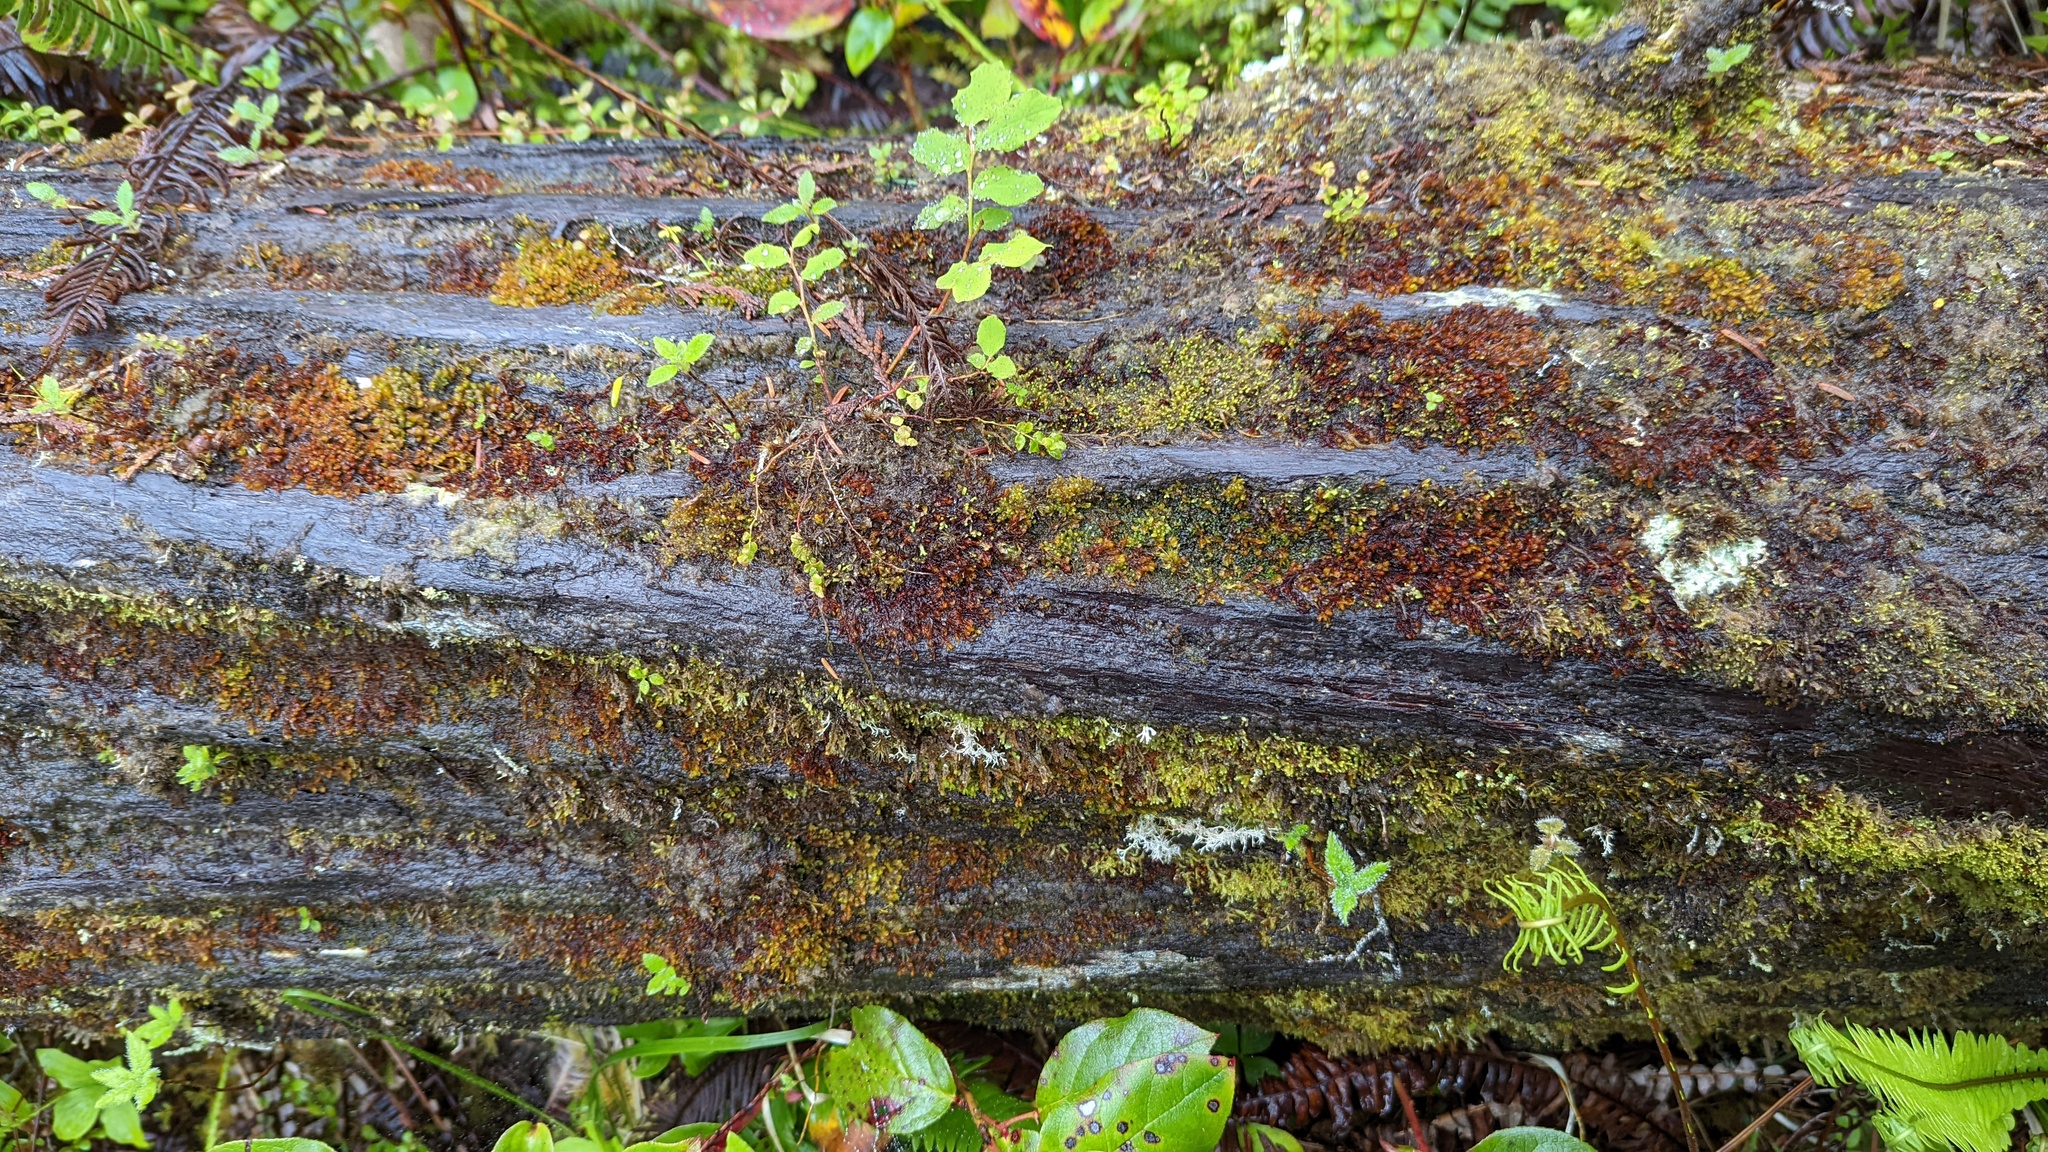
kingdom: Plantae
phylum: Marchantiophyta
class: Jungermanniopsida
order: Jungermanniales
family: Myliaceae
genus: Mylia
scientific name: Mylia taylorii
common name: Taylor s flapwort
